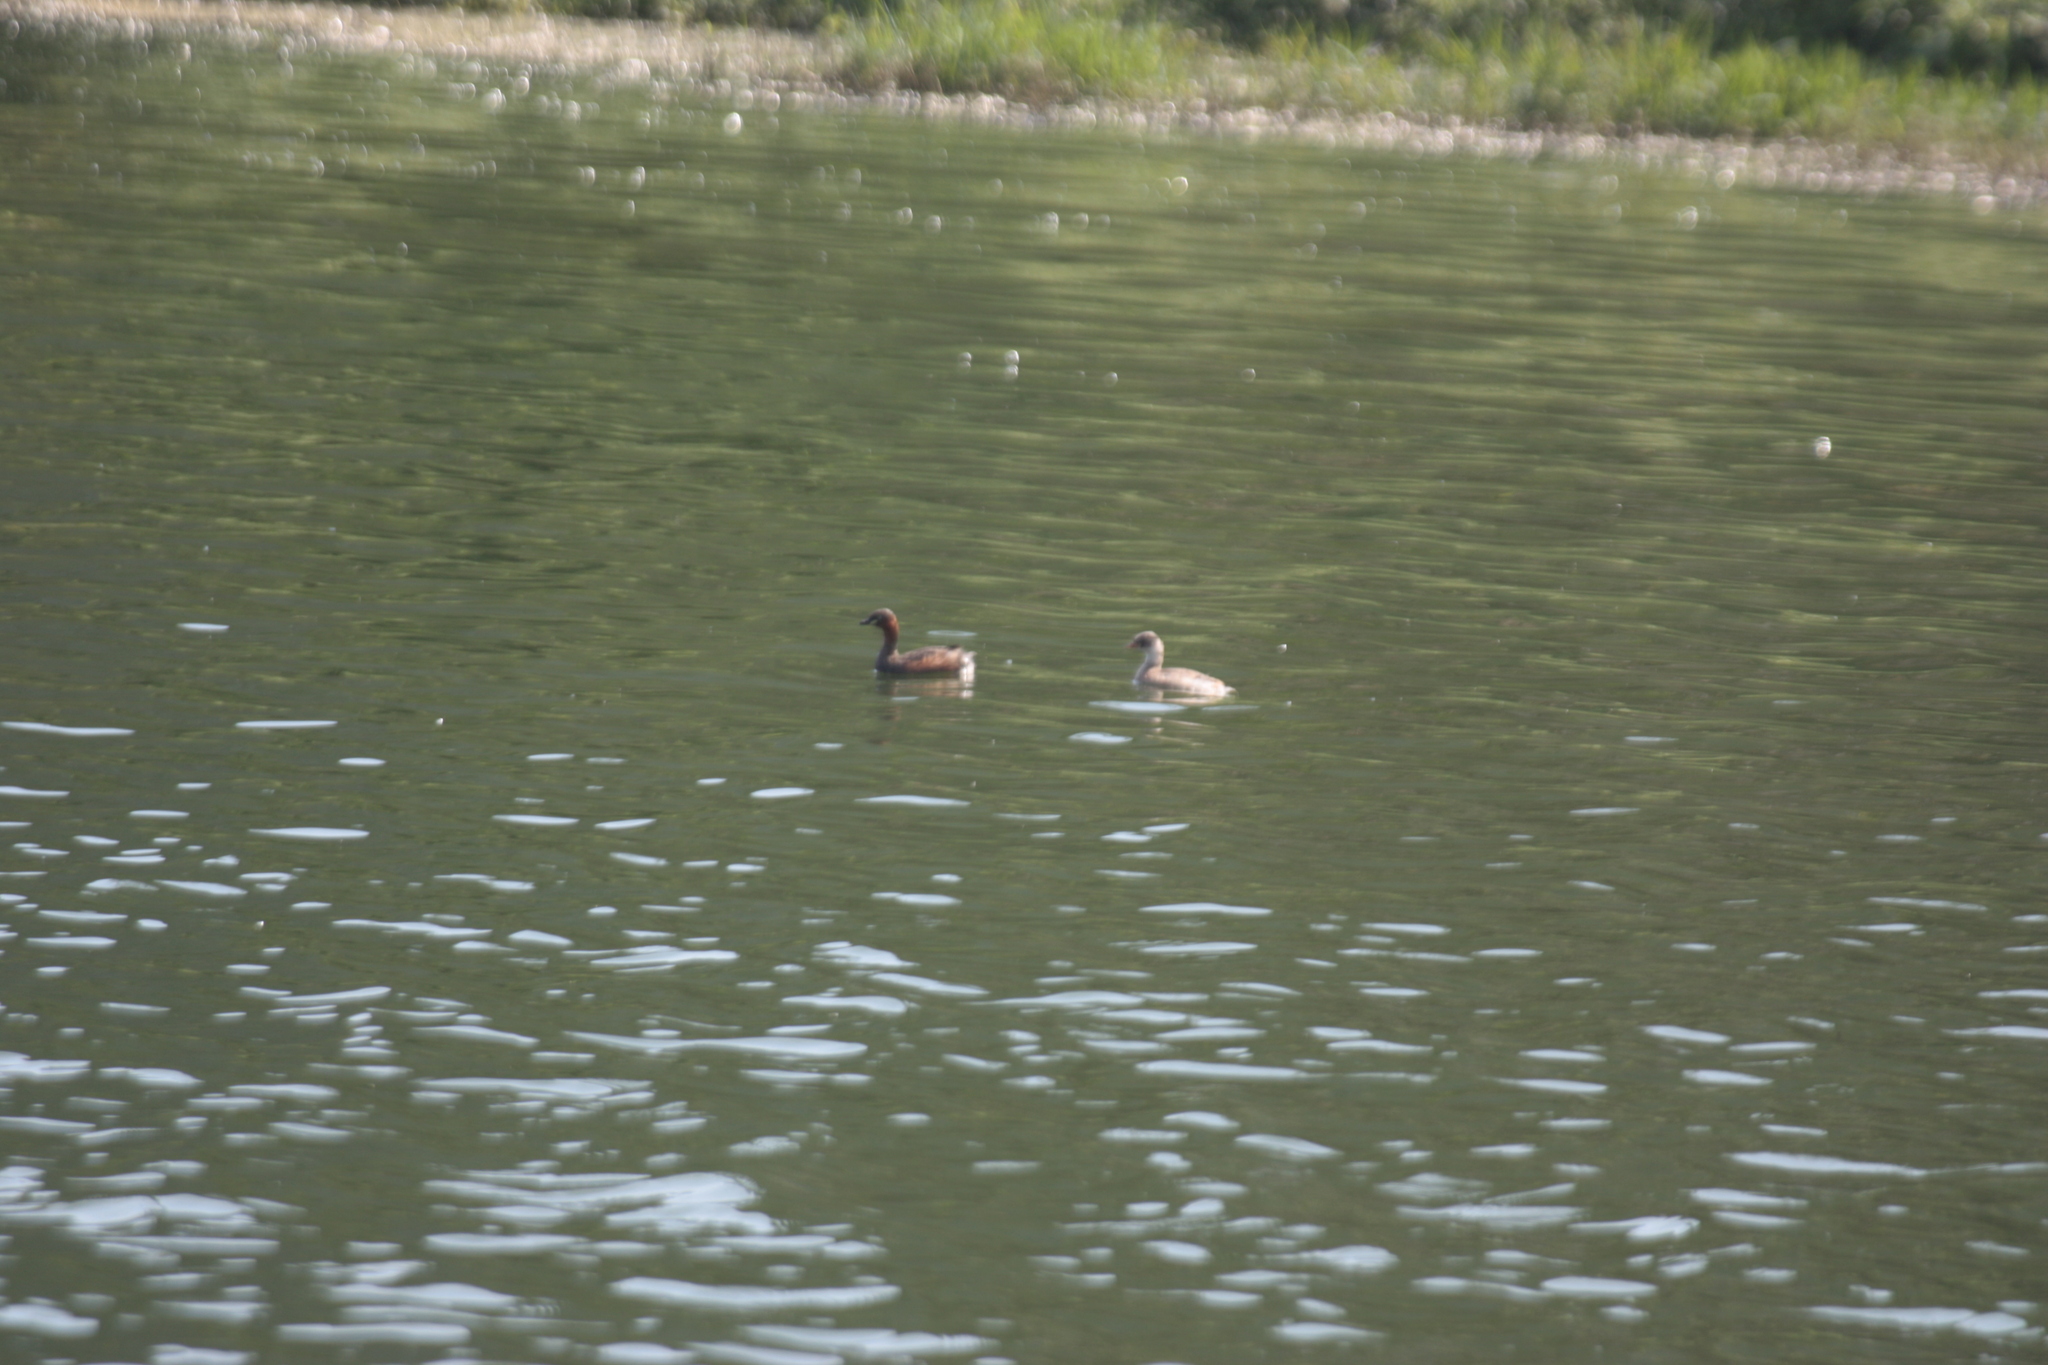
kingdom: Animalia
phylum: Chordata
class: Aves
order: Podicipediformes
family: Podicipedidae
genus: Tachybaptus
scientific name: Tachybaptus ruficollis
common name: Little grebe
